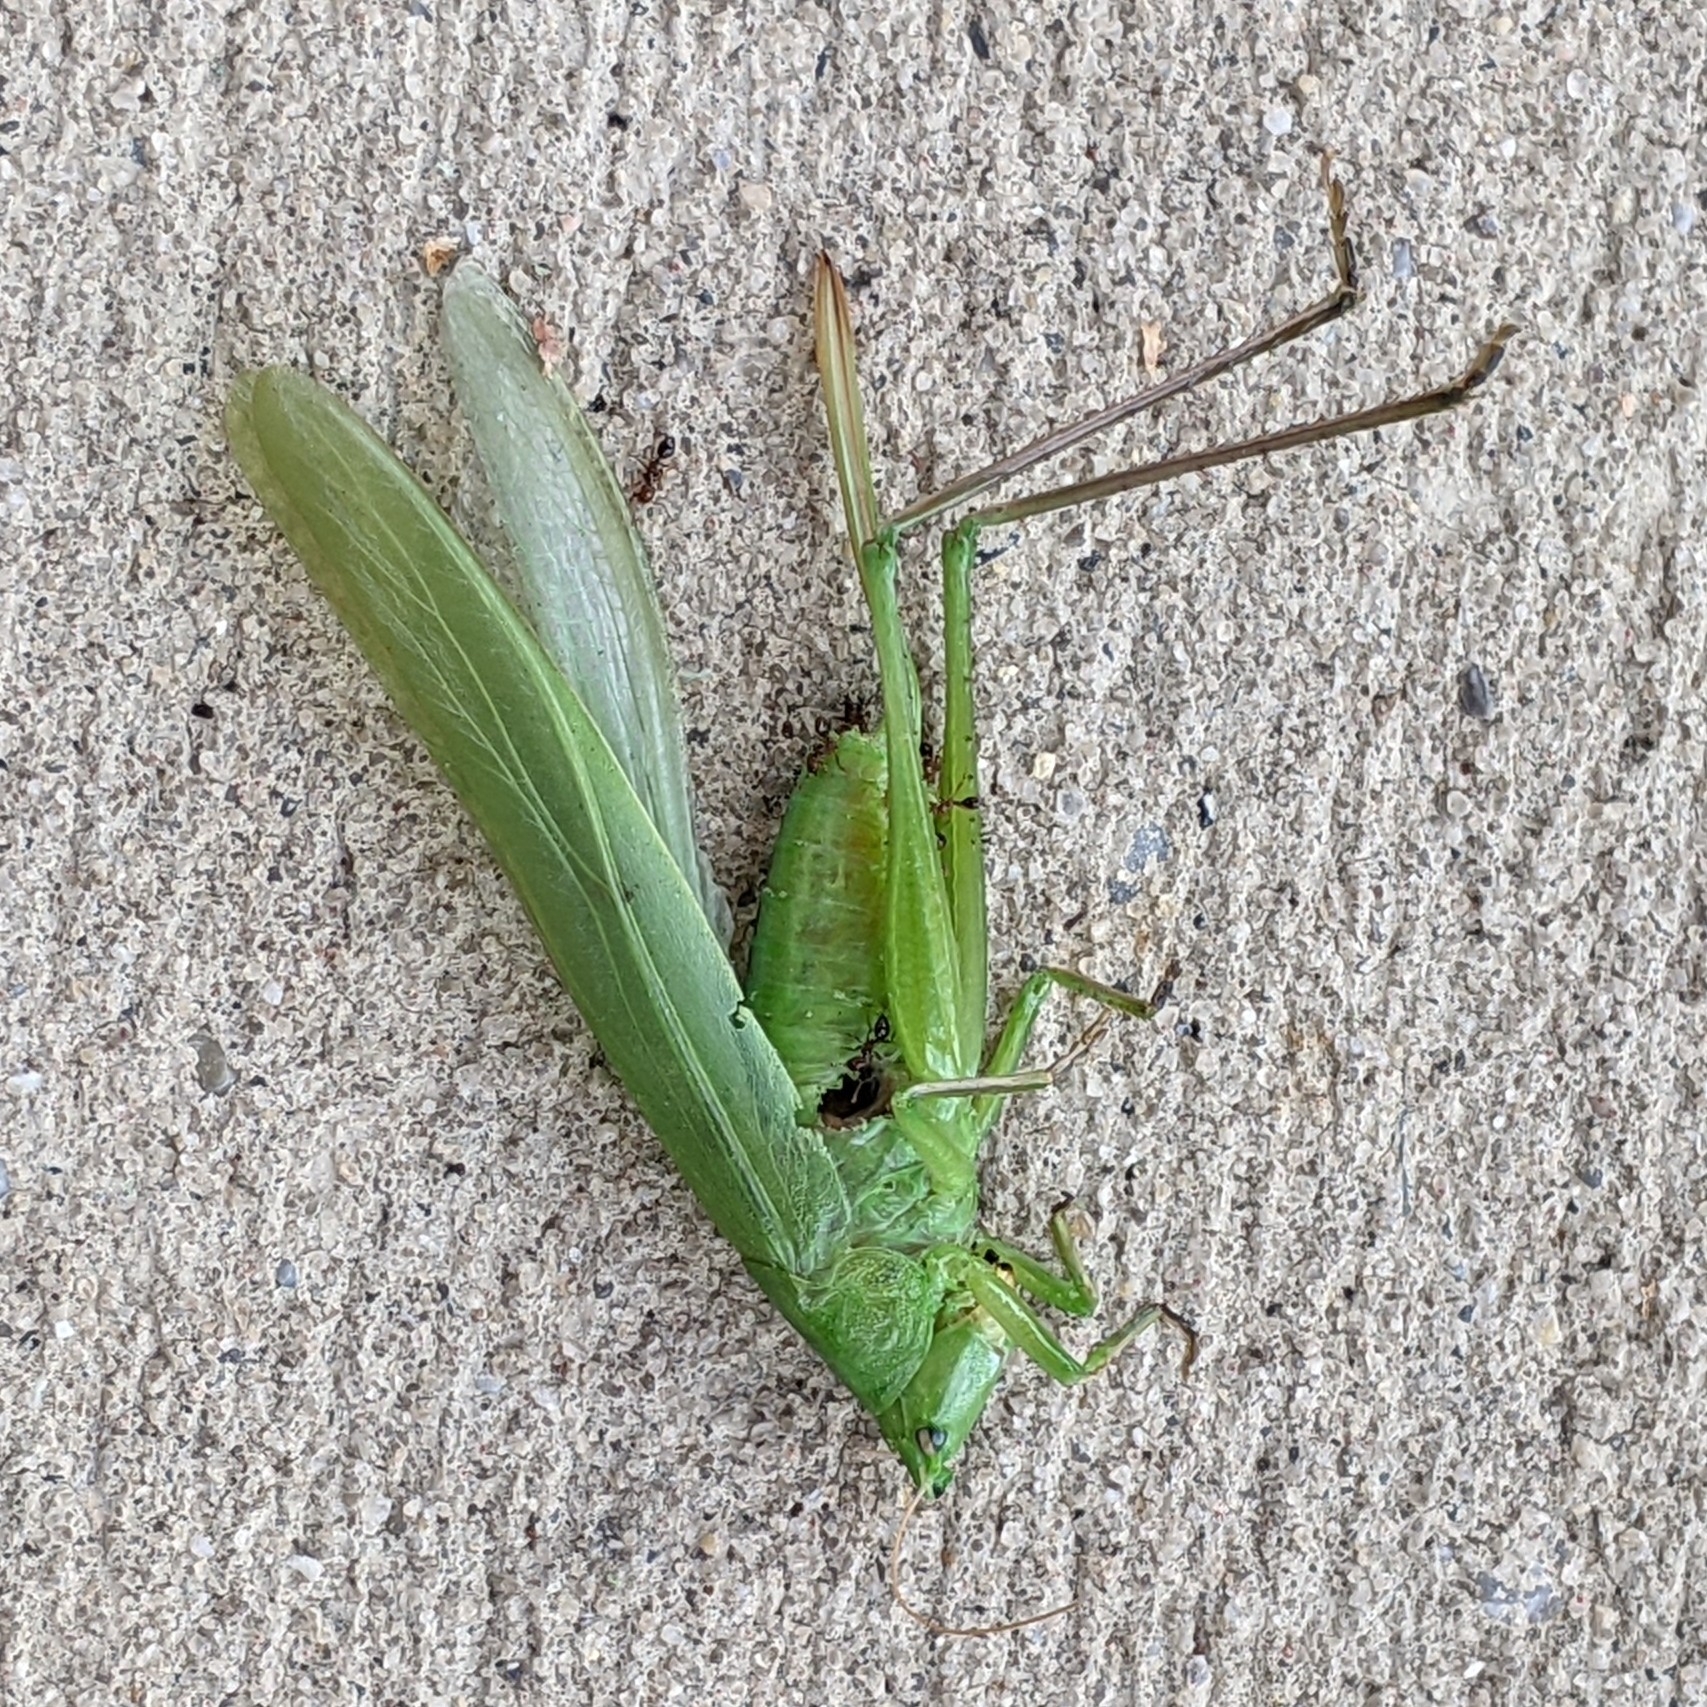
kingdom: Animalia
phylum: Arthropoda
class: Insecta
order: Orthoptera
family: Tettigoniidae
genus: Neoconocephalus
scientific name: Neoconocephalus triops
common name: Broad-tipped conehead
